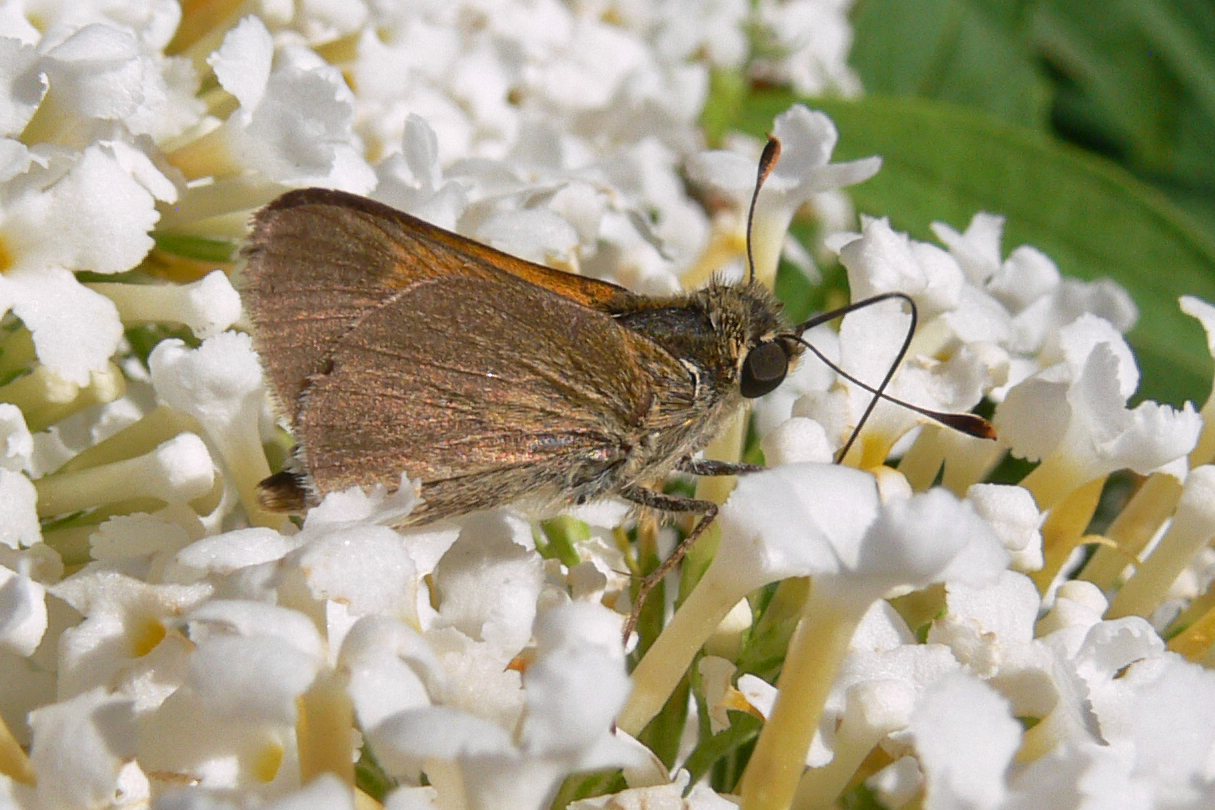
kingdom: Animalia
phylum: Arthropoda
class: Insecta
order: Lepidoptera
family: Hesperiidae
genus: Polites
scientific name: Polites themistocles
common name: Tawny-edged skipper
